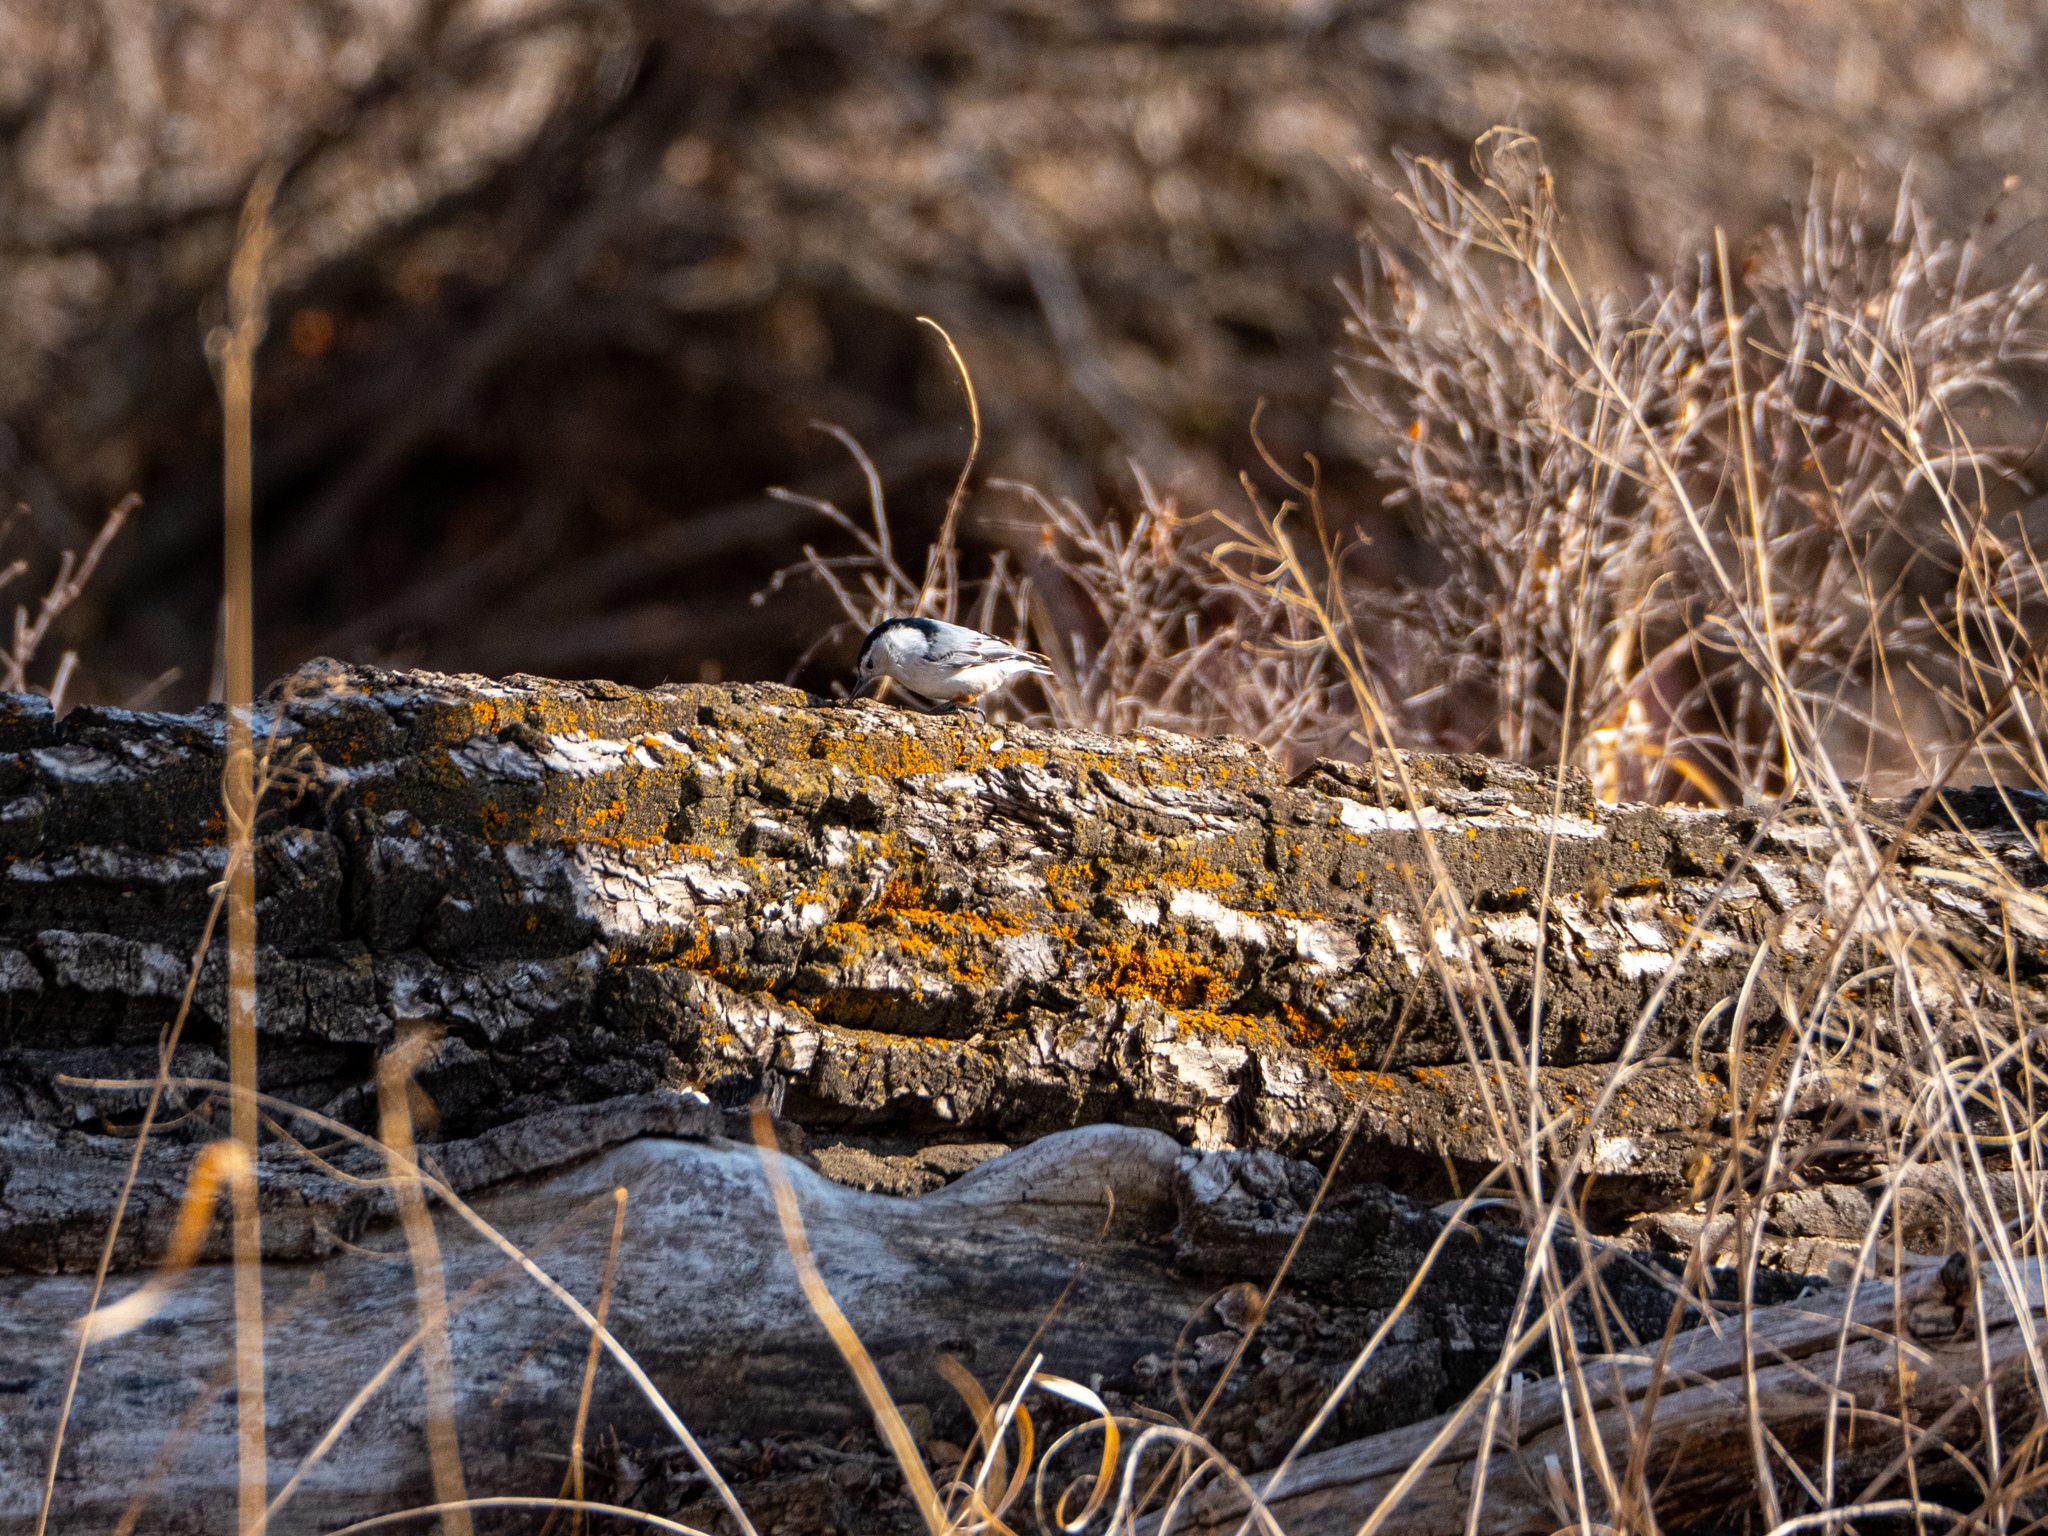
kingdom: Animalia
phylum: Chordata
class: Aves
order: Passeriformes
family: Sittidae
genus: Sitta
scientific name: Sitta carolinensis
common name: White-breasted nuthatch
